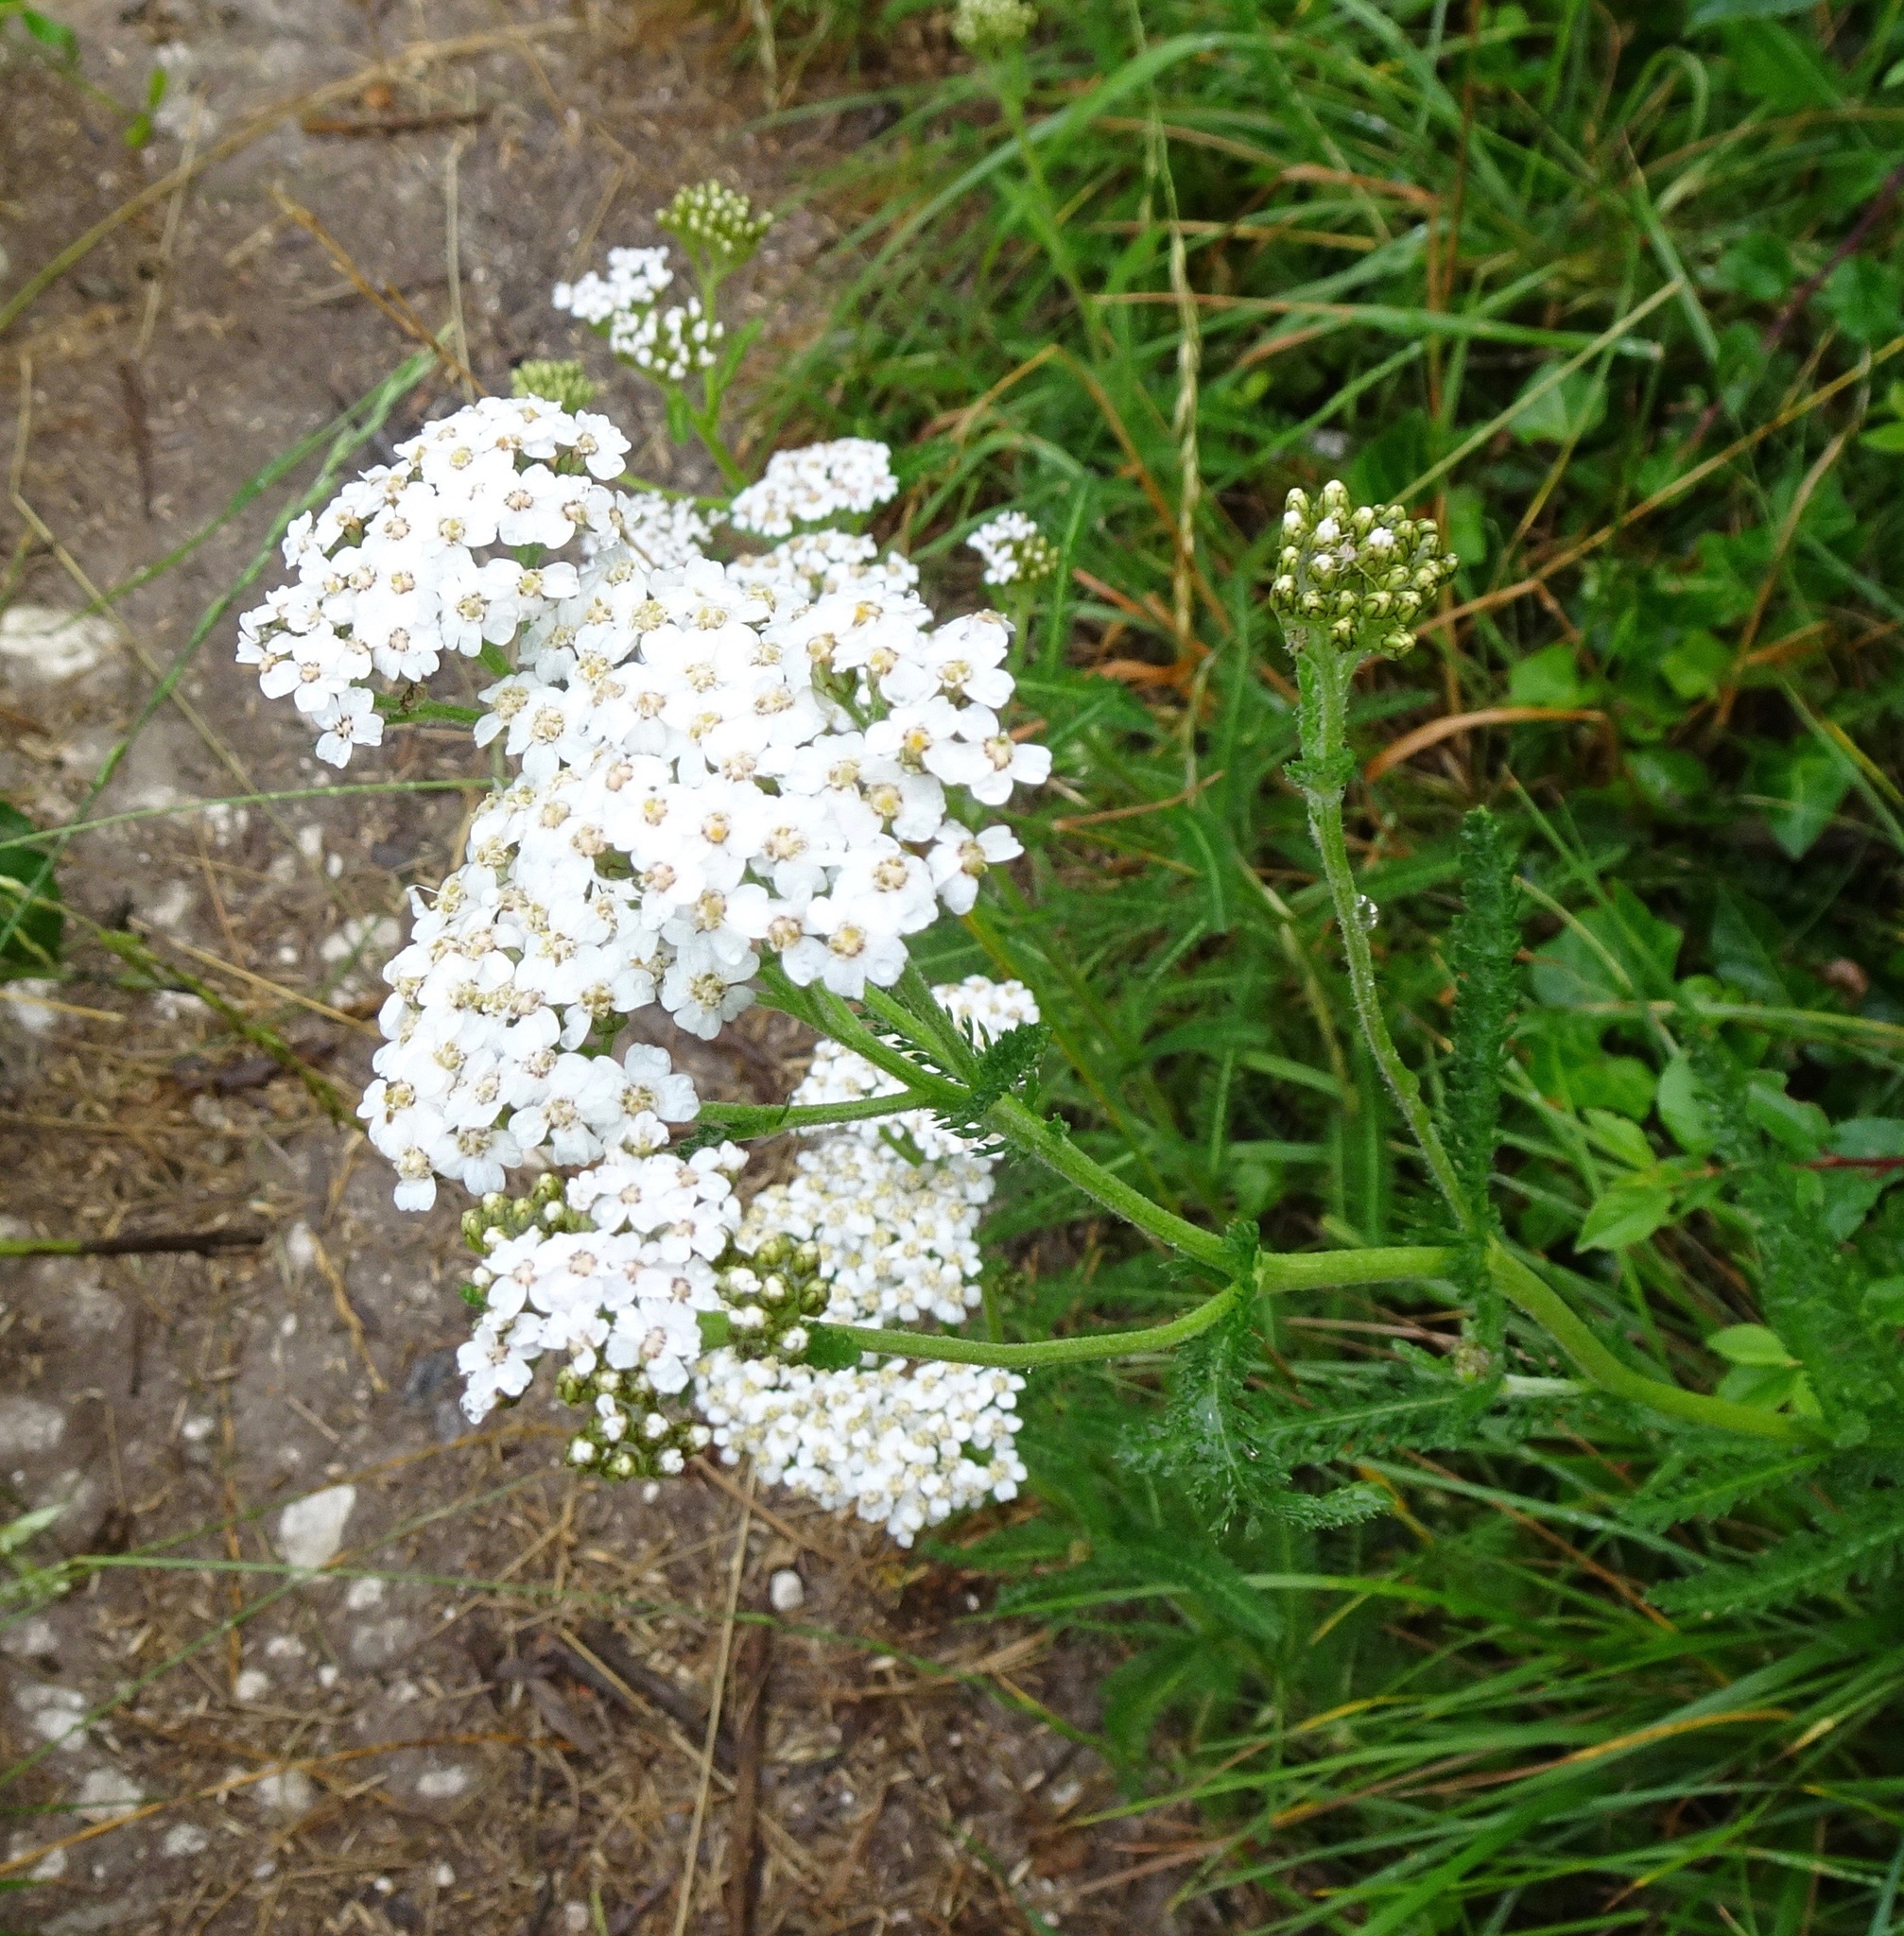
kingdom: Plantae
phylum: Tracheophyta
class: Magnoliopsida
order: Asterales
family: Asteraceae
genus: Achillea
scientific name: Achillea millefolium
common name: Yarrow
